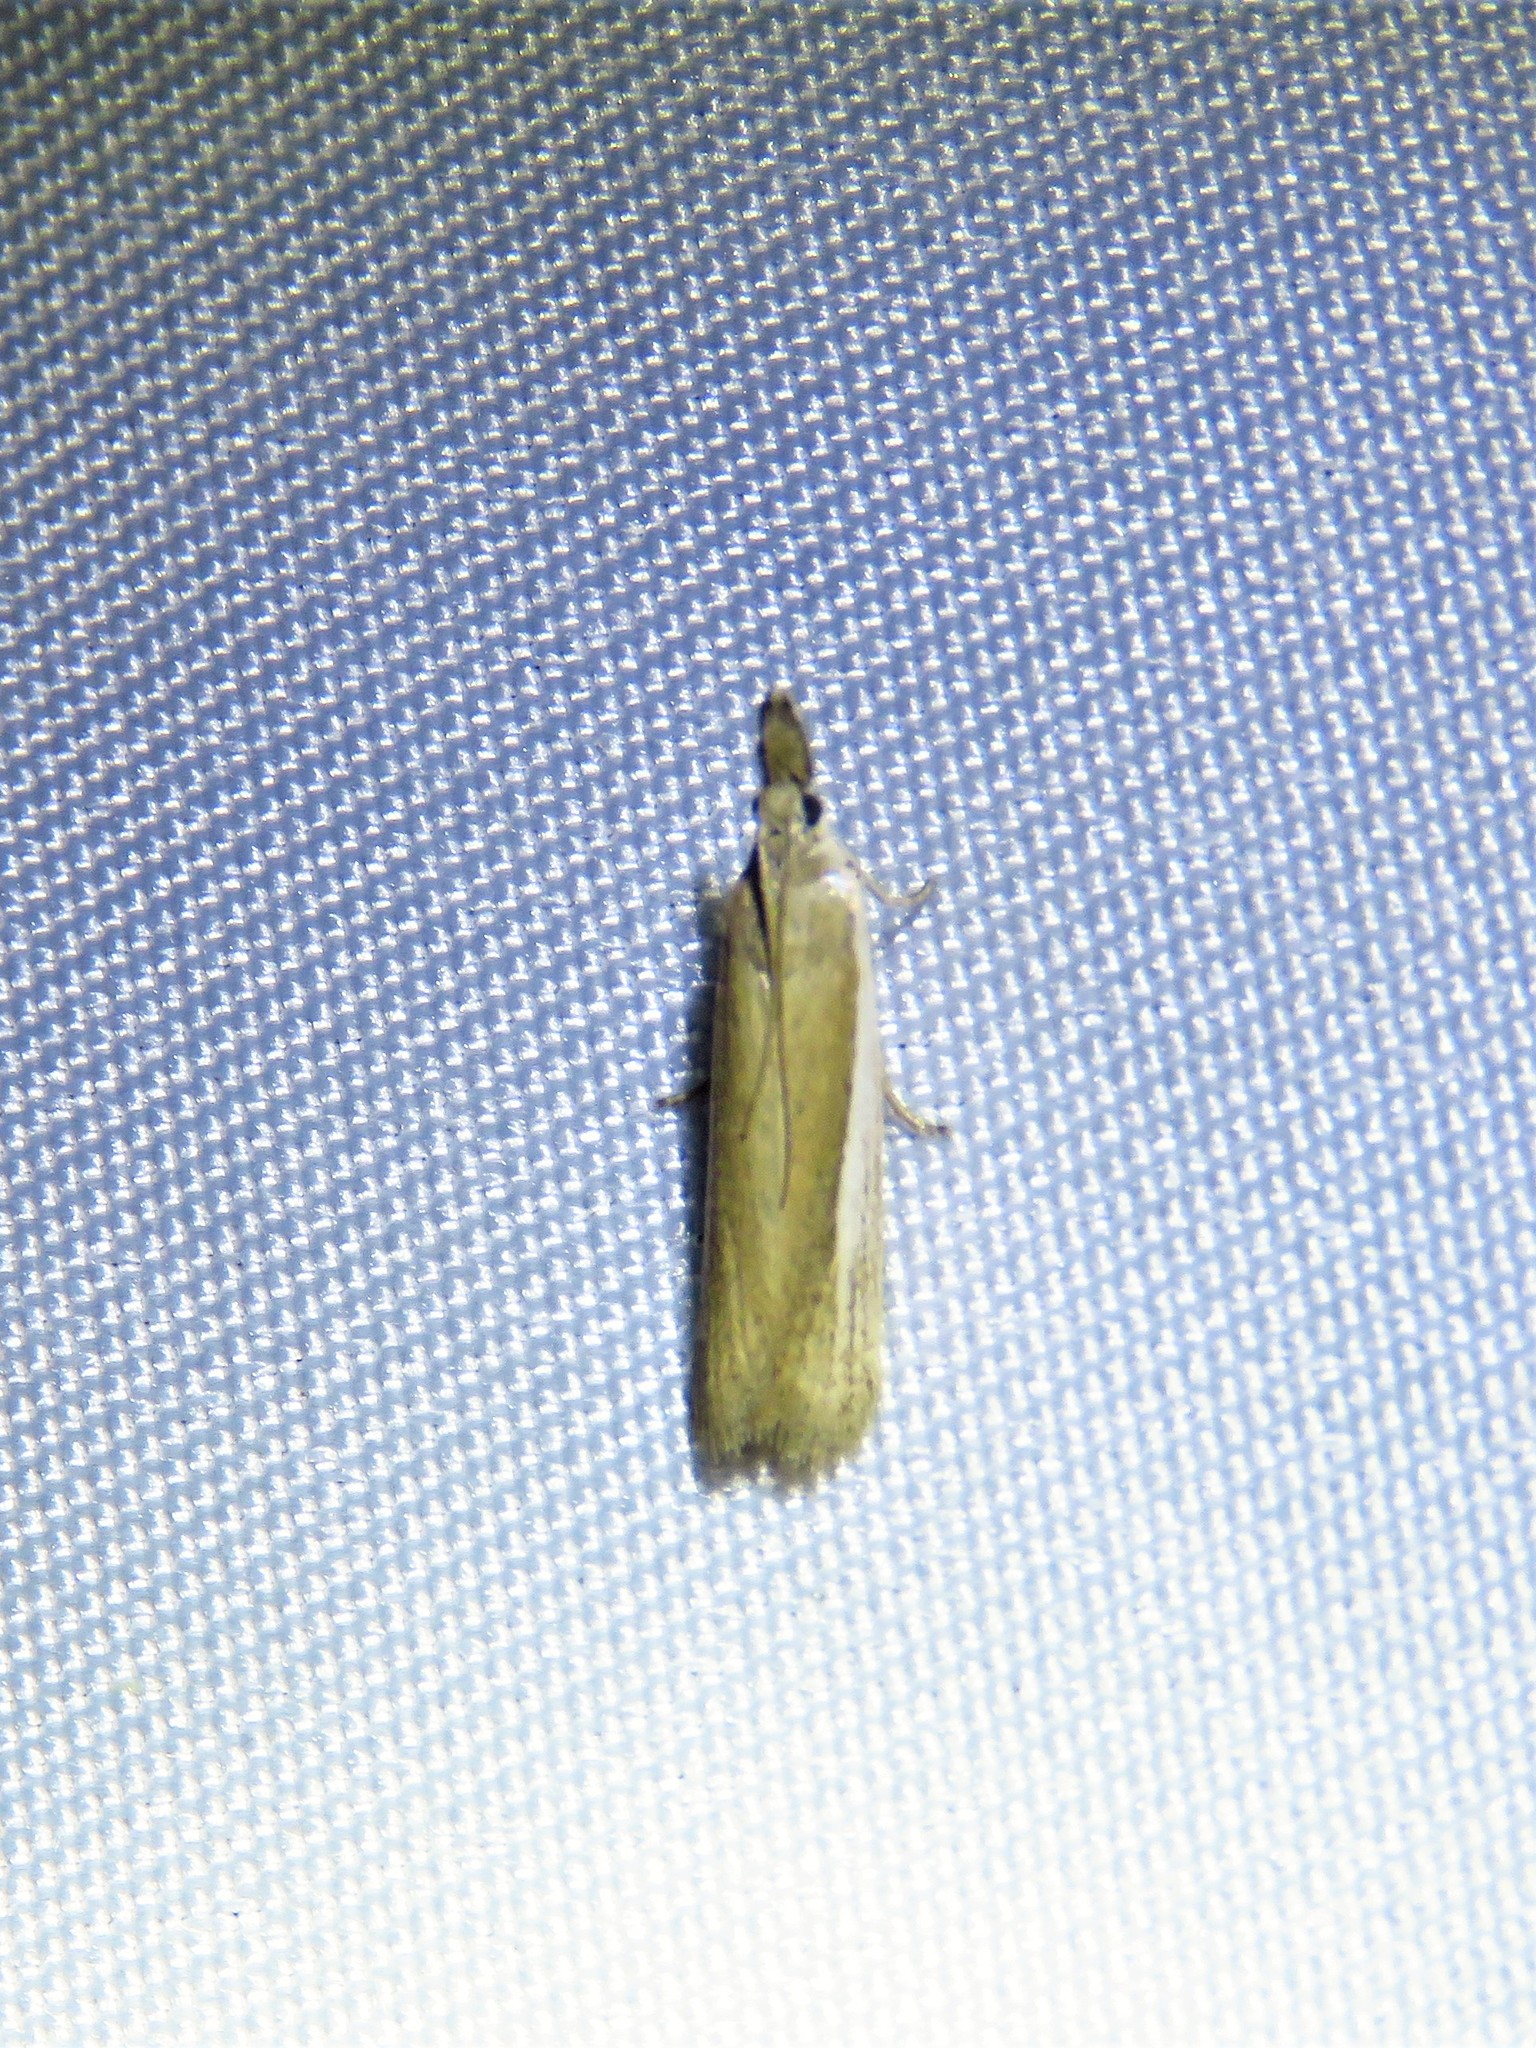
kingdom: Animalia
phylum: Arthropoda
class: Insecta
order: Lepidoptera
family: Pyralidae
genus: Tampa
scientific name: Tampa dimediatella
